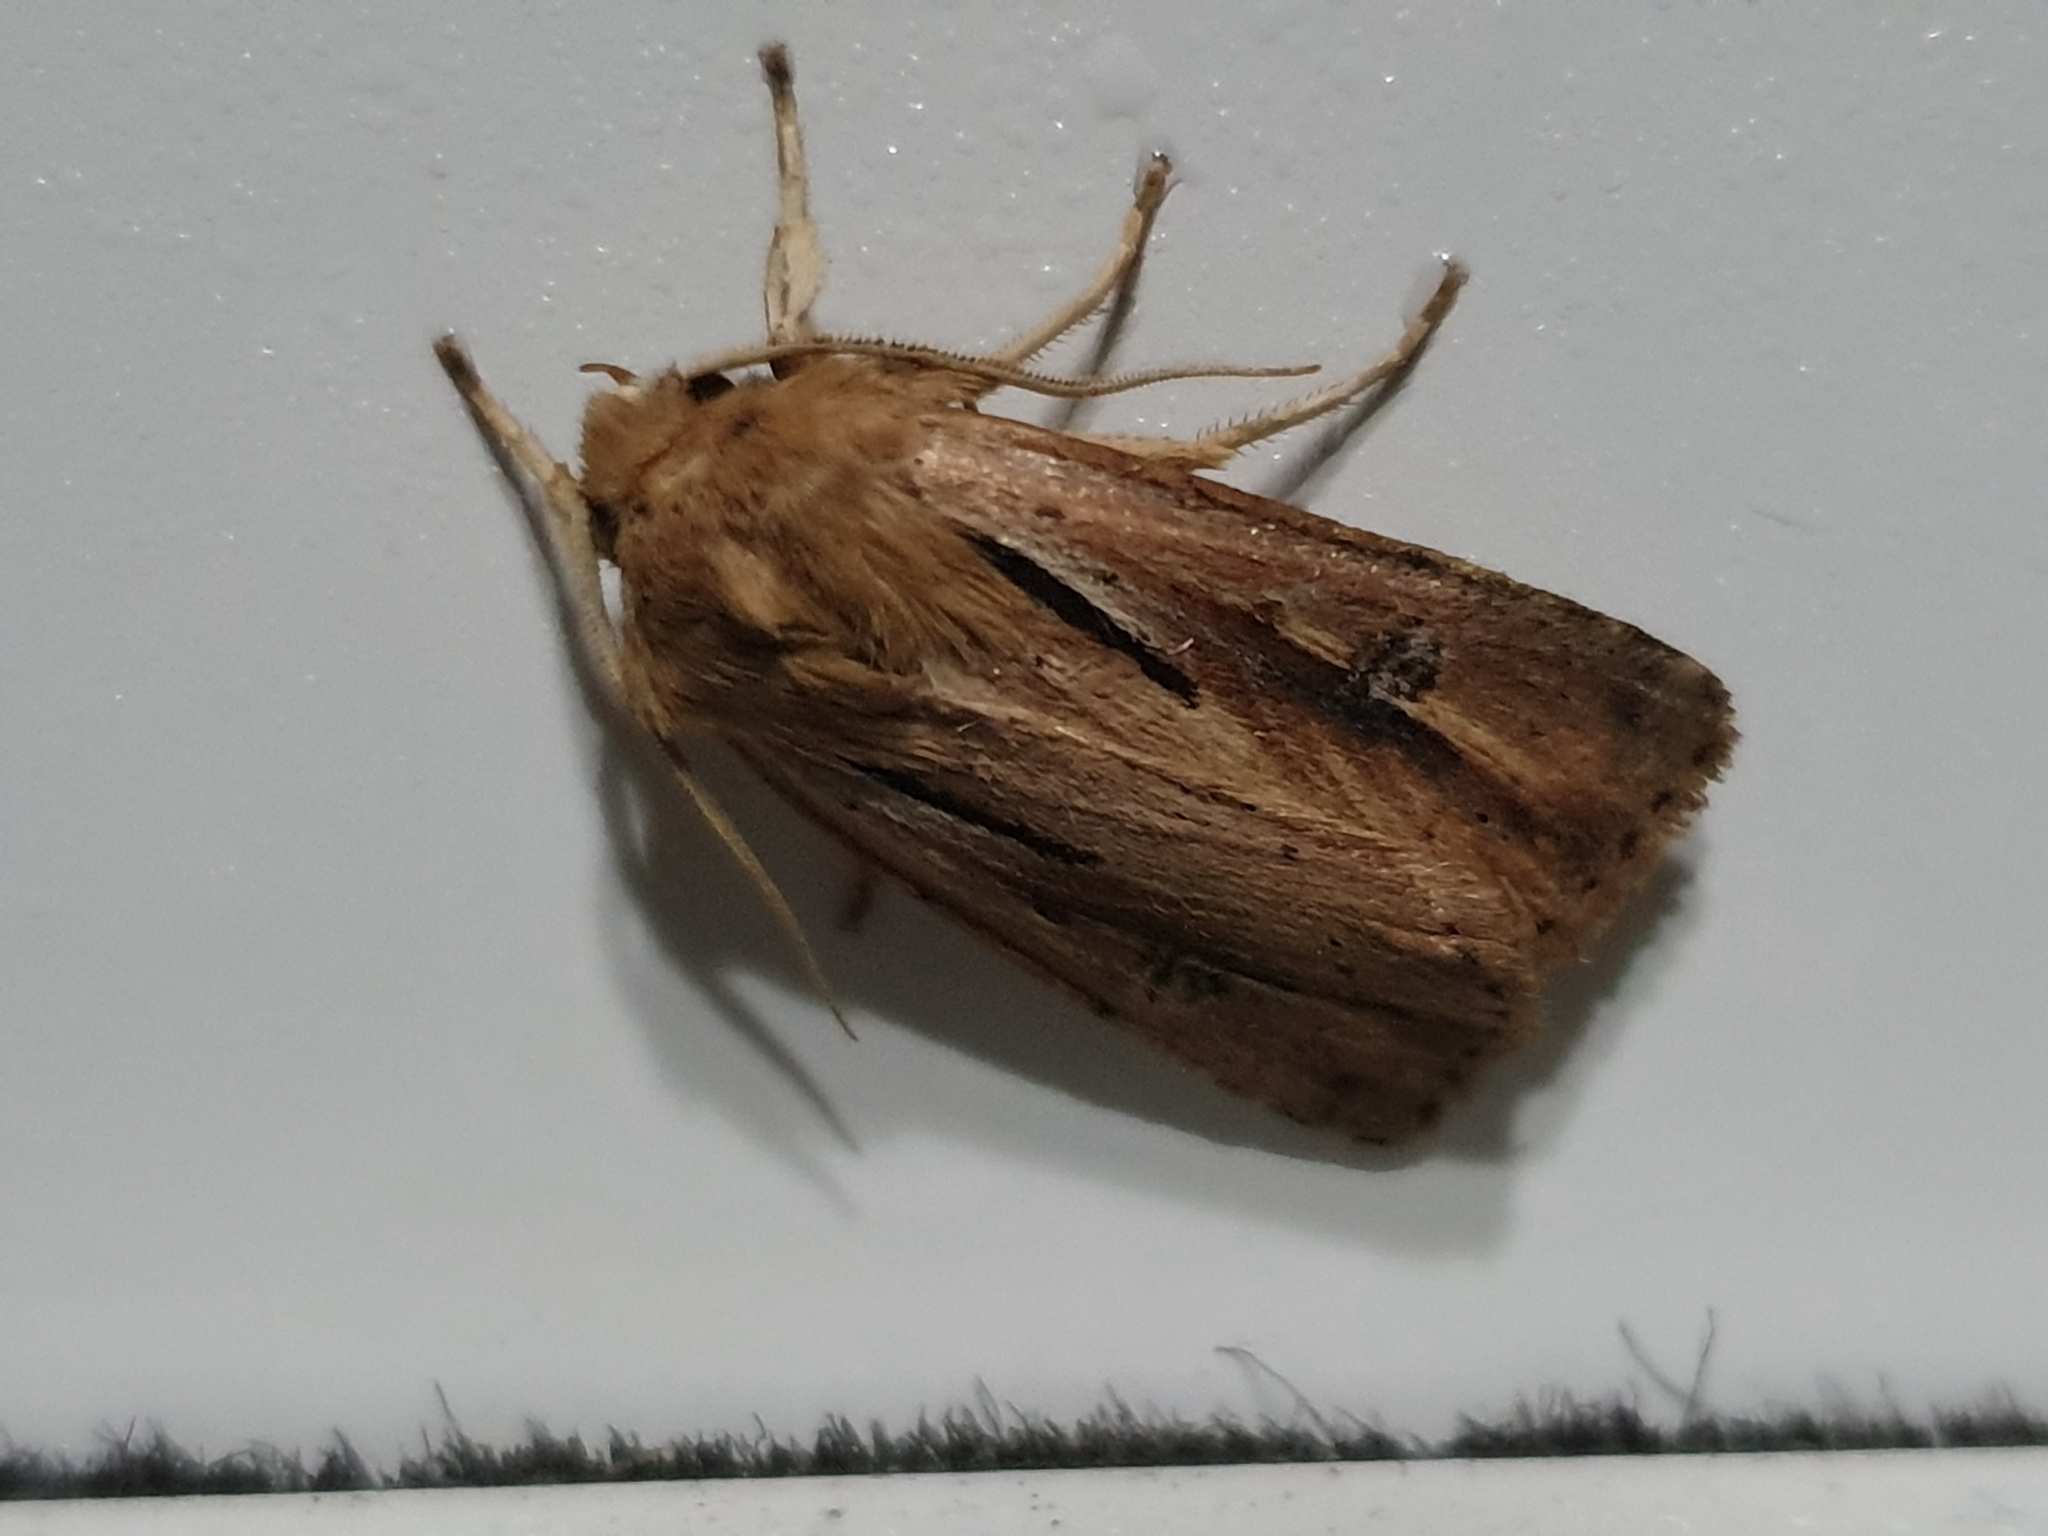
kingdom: Animalia
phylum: Arthropoda
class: Insecta
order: Lepidoptera
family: Noctuidae
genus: Ichneutica
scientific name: Ichneutica propria
